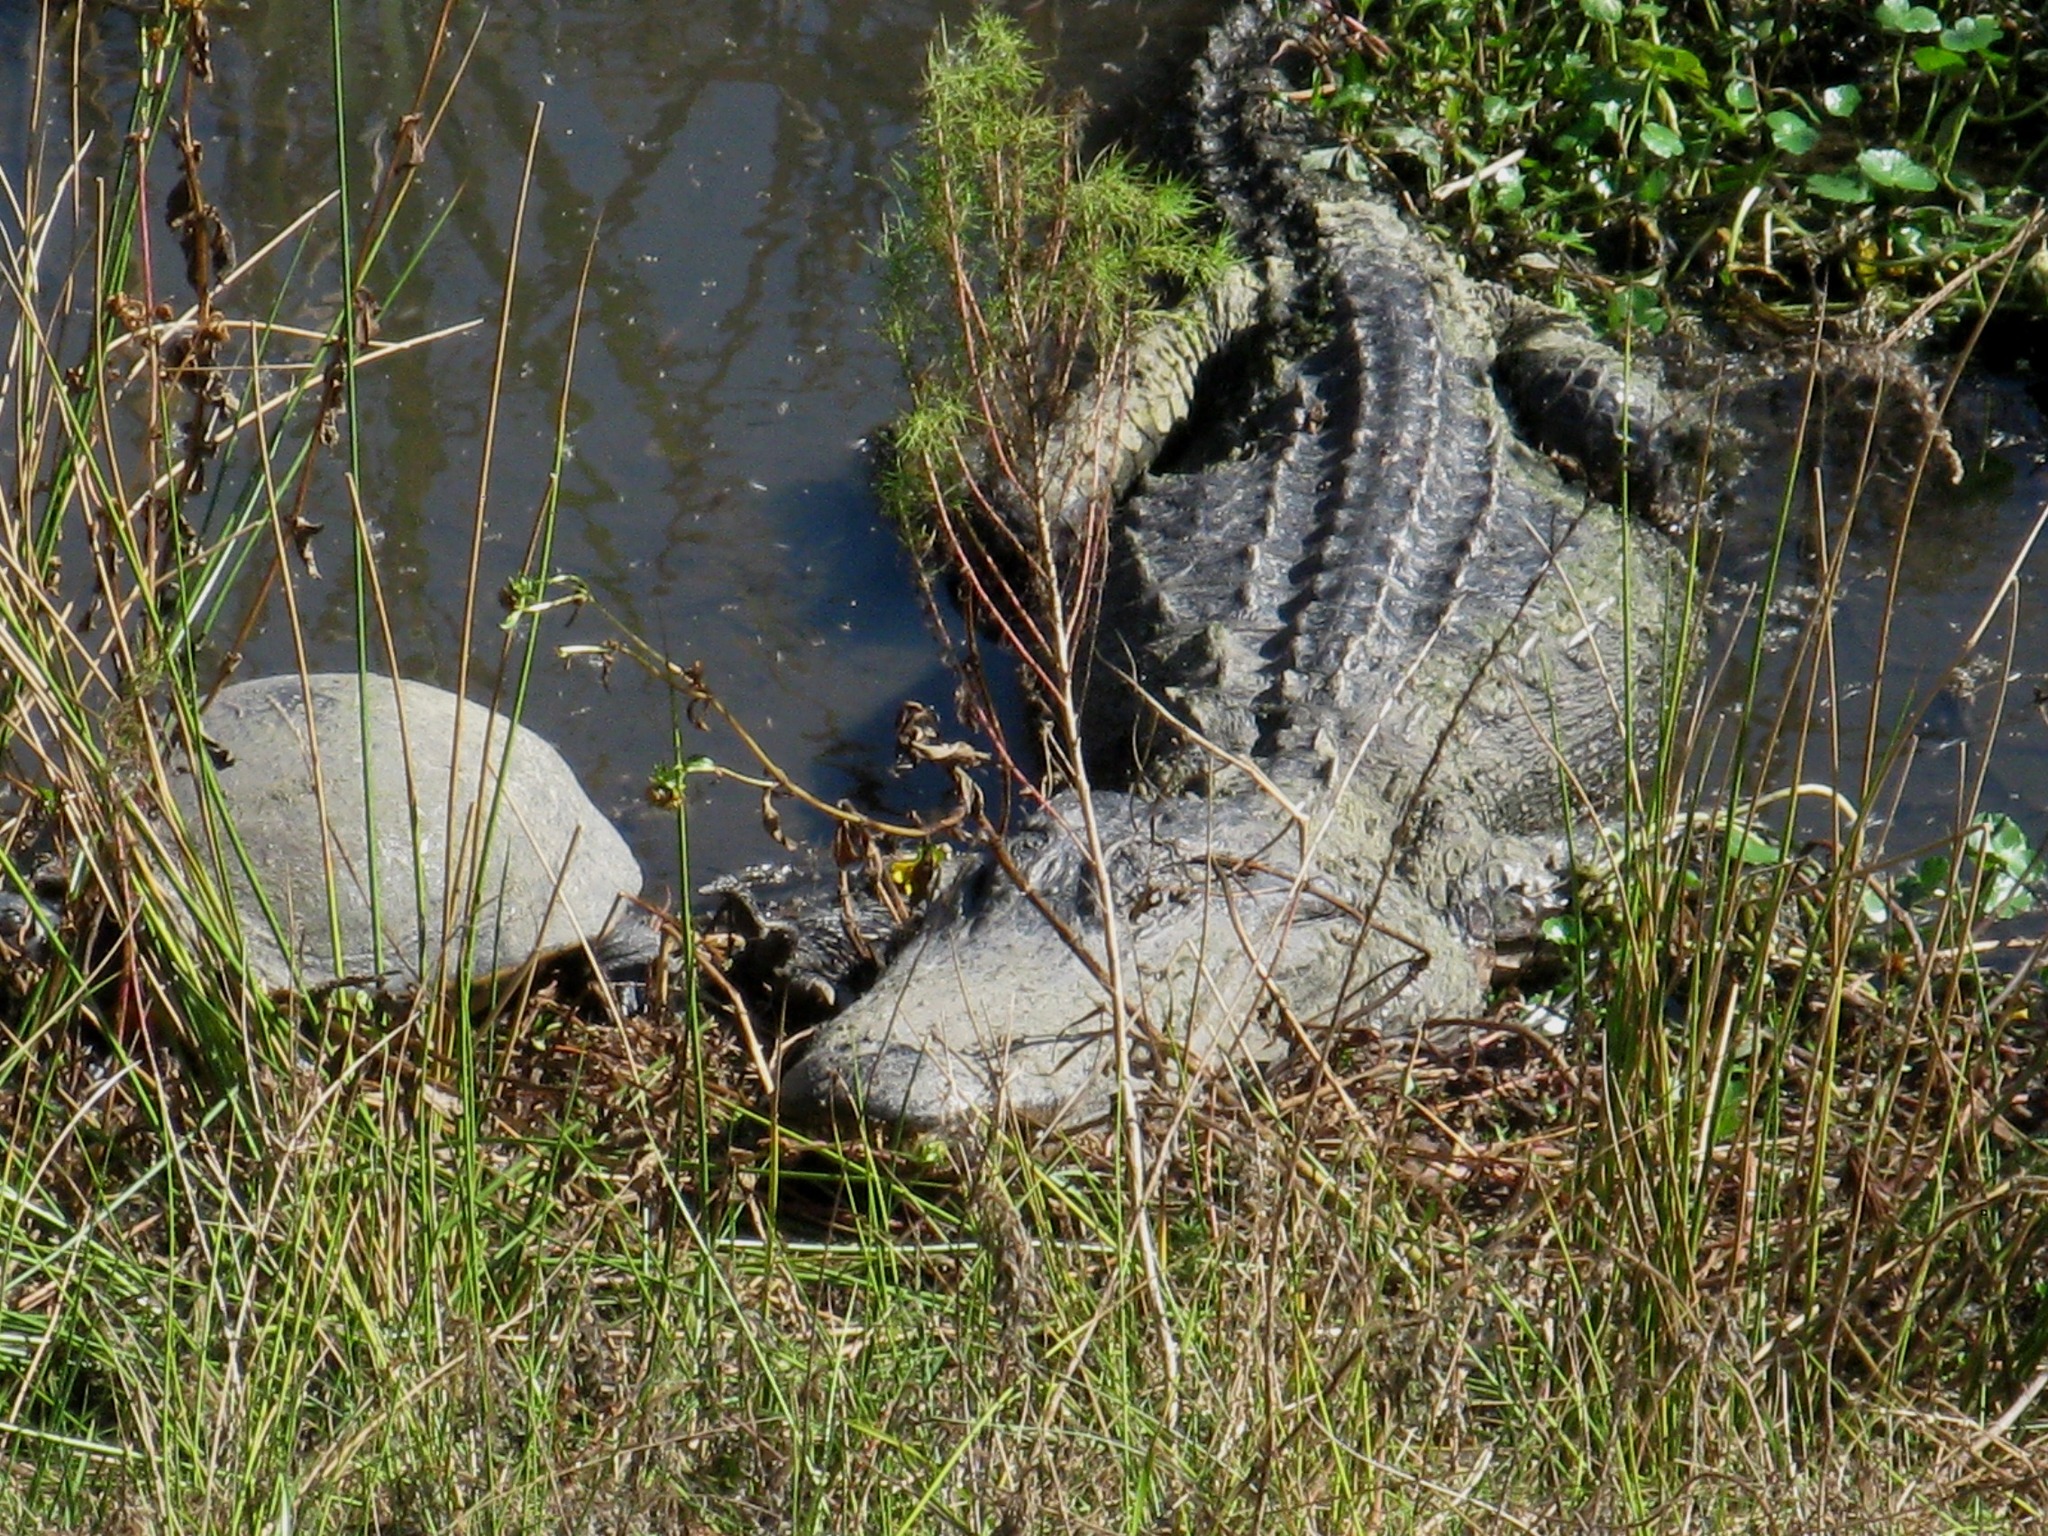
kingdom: Animalia
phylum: Chordata
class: Crocodylia
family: Alligatoridae
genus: Alligator
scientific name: Alligator mississippiensis
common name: American alligator
